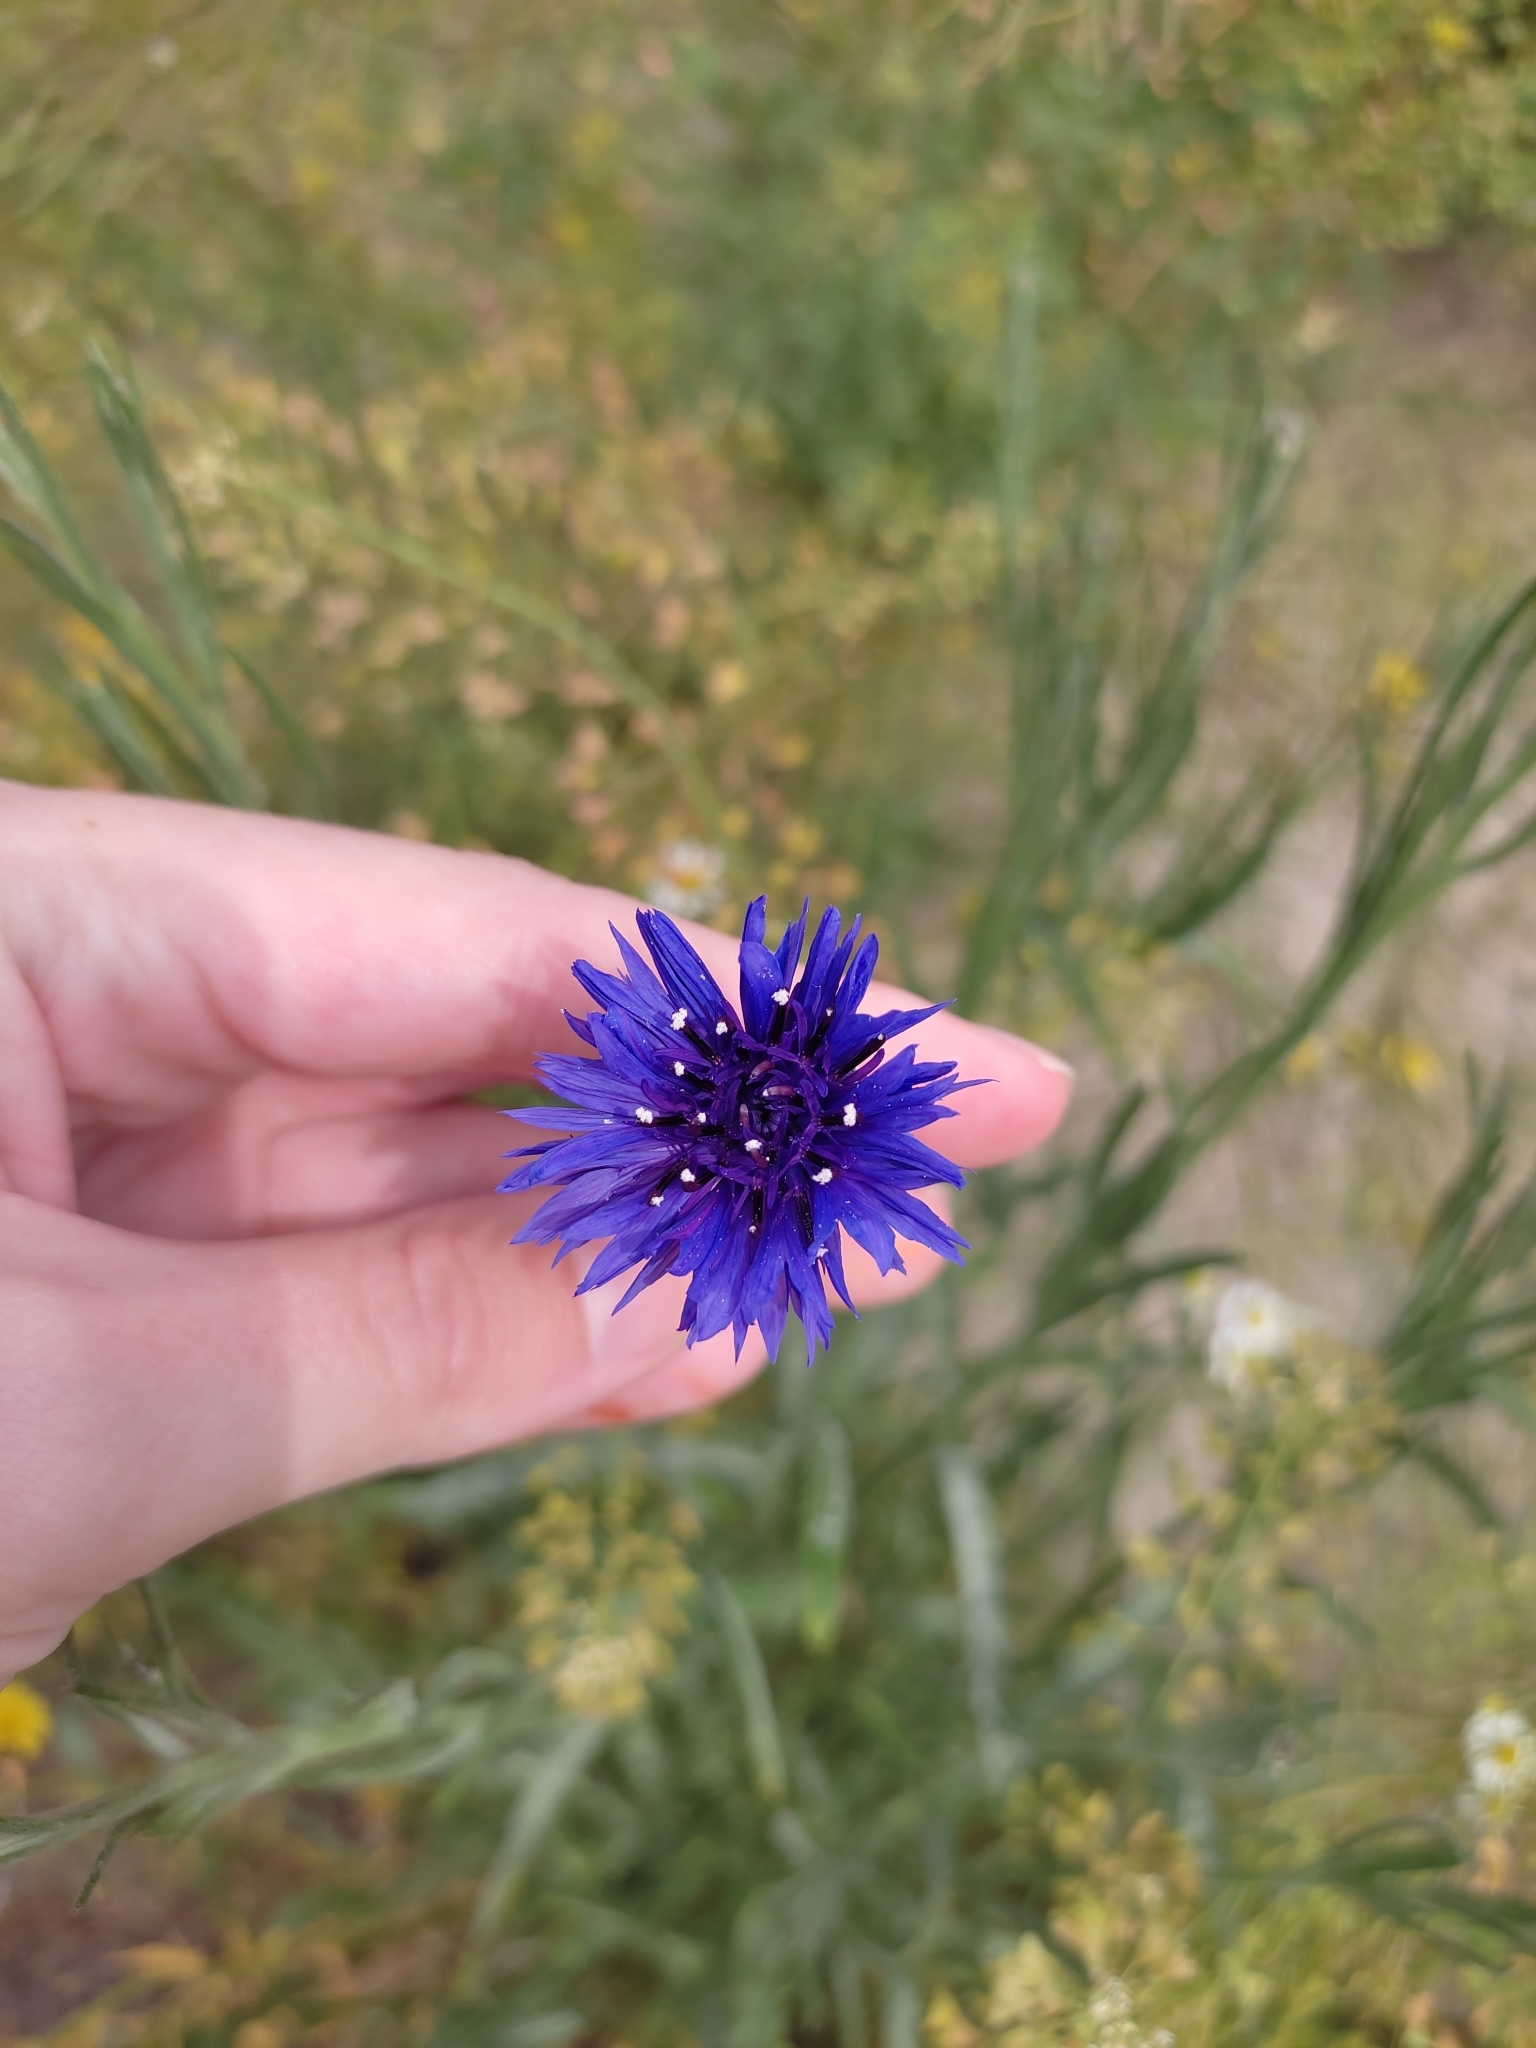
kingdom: Plantae
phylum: Tracheophyta
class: Magnoliopsida
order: Asterales
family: Asteraceae
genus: Centaurea
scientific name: Centaurea cyanus
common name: Cornflower
